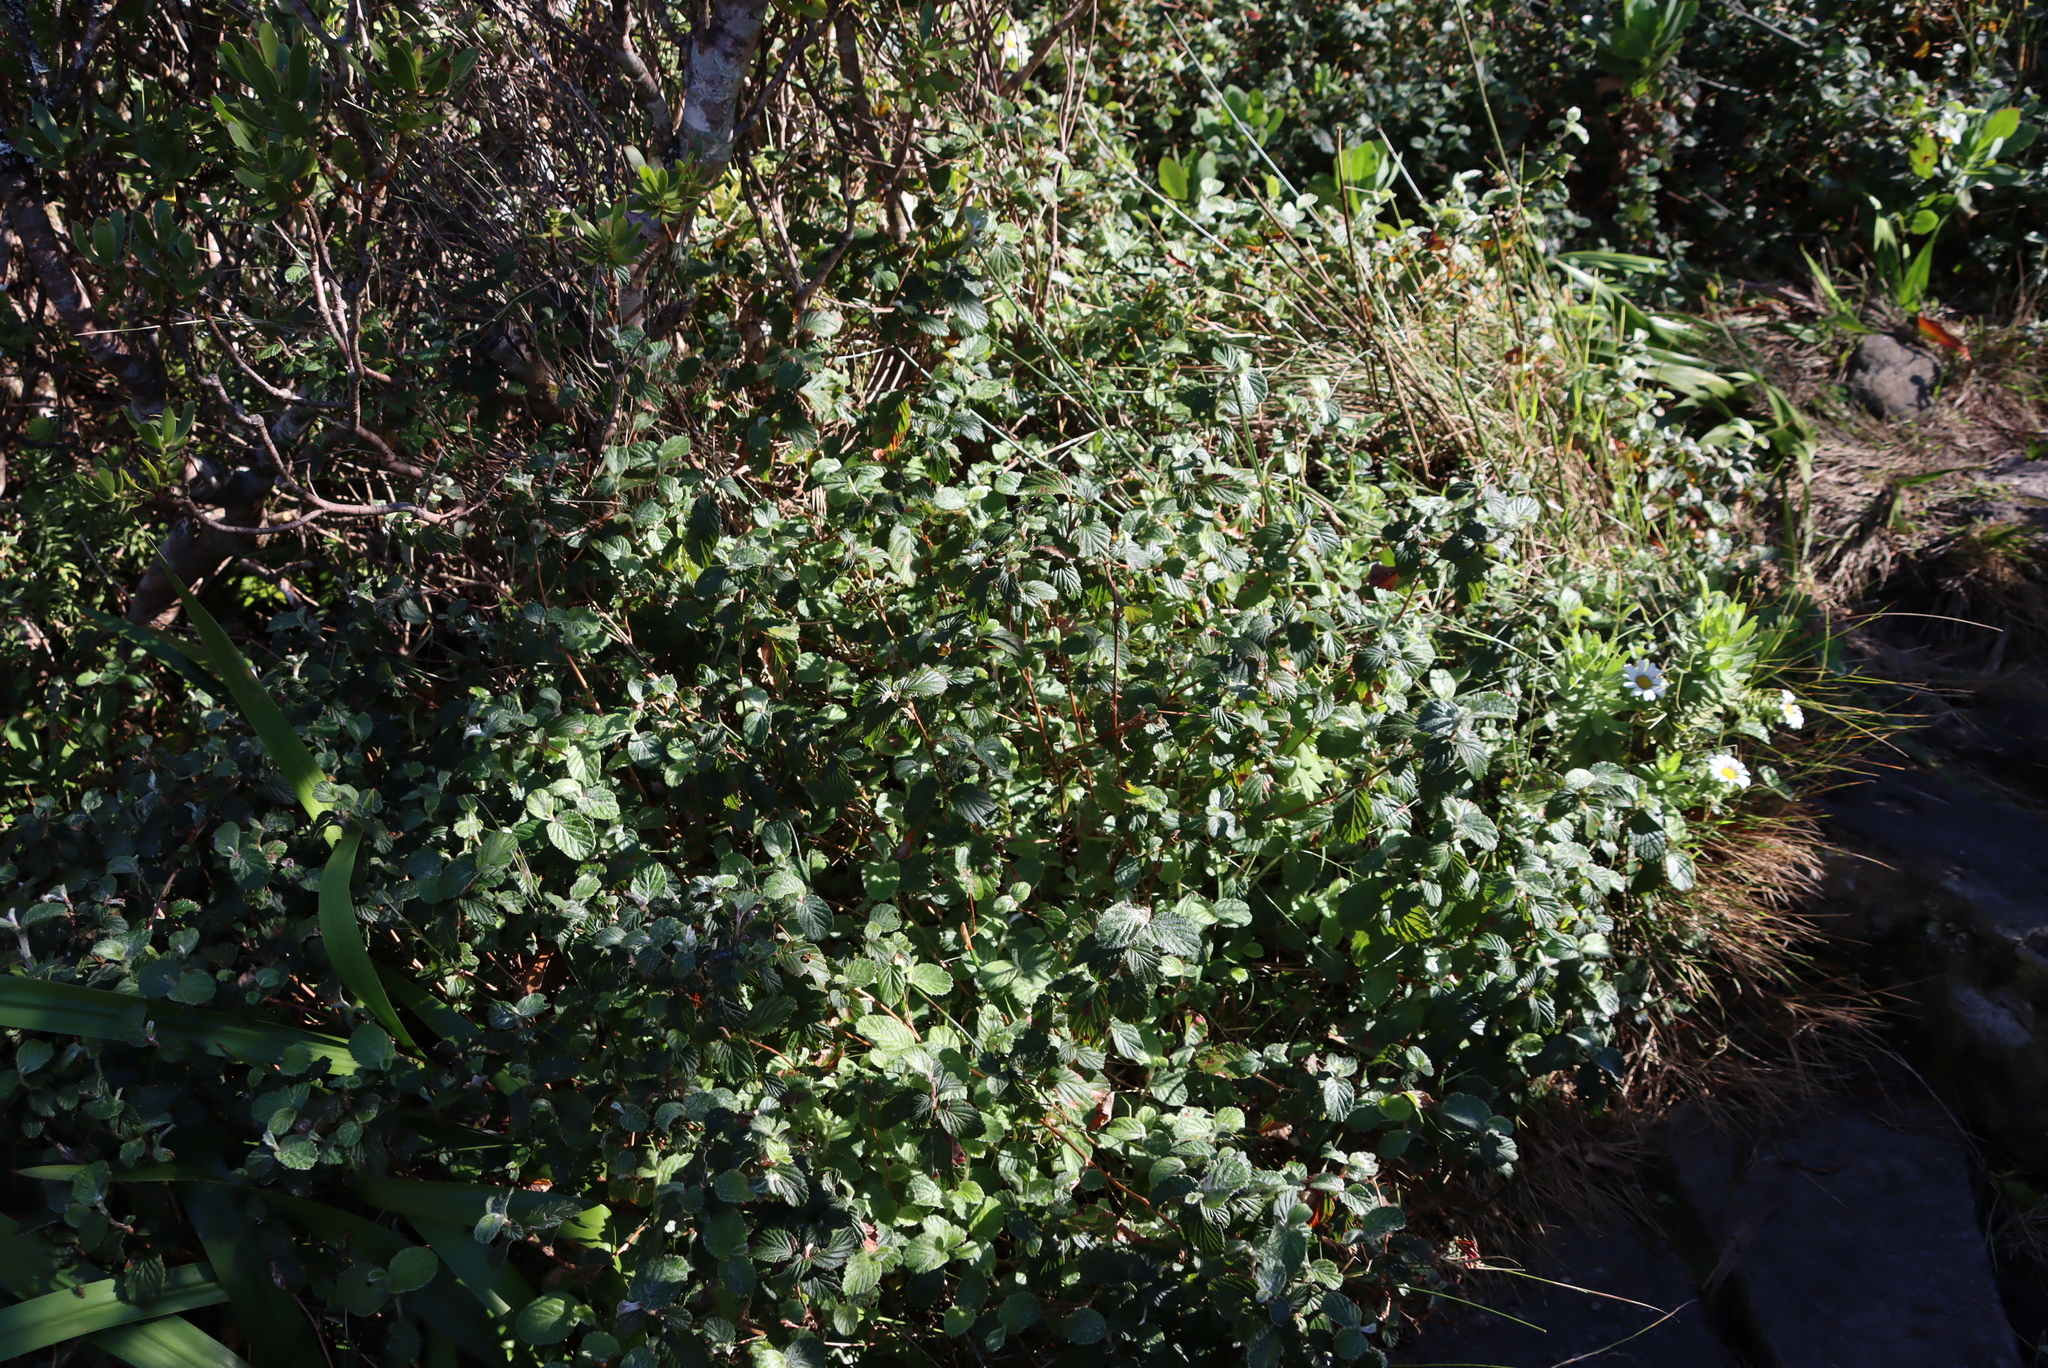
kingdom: Plantae
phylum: Tracheophyta
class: Magnoliopsida
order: Rosales
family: Rosaceae
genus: Cliffortia
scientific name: Cliffortia odorata
